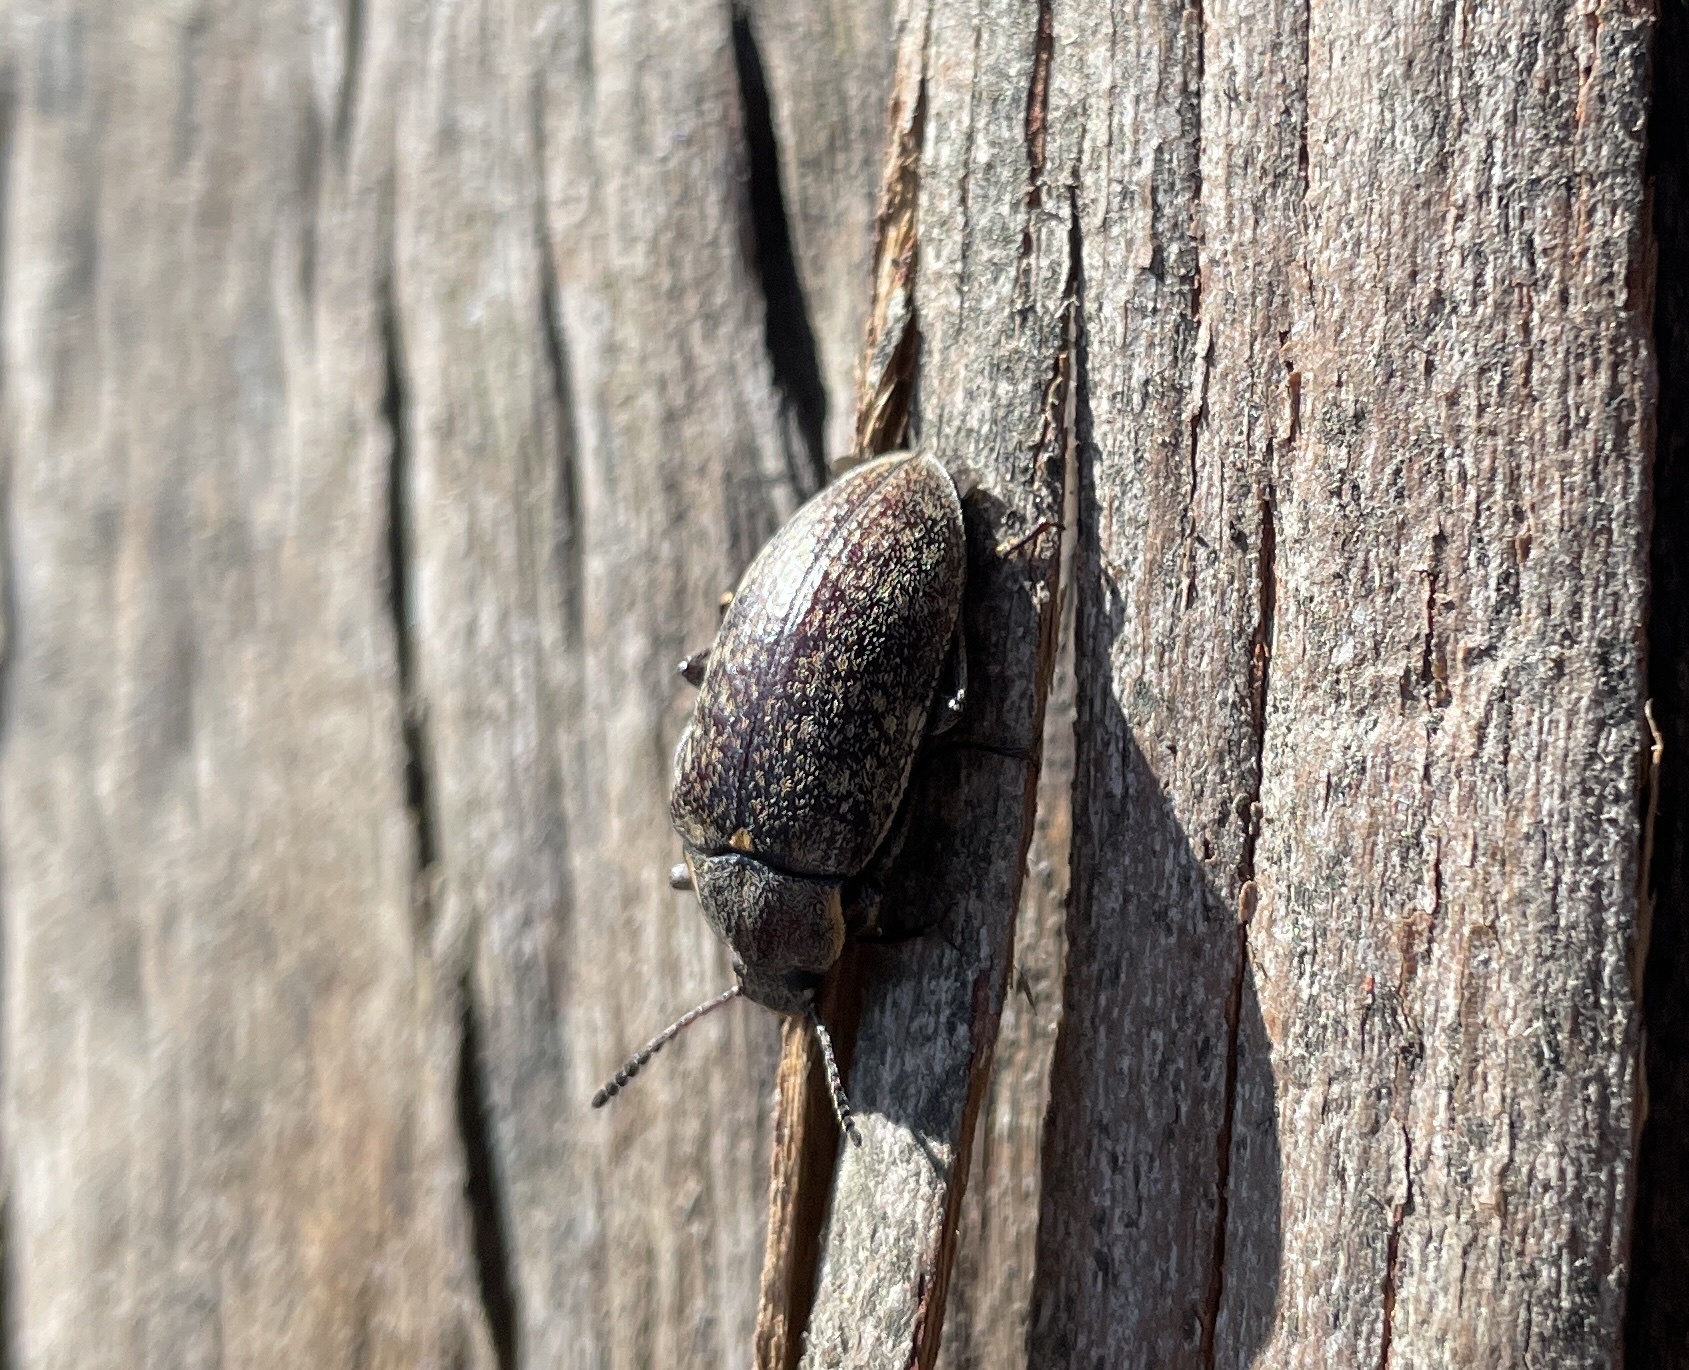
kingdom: Animalia
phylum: Arthropoda
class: Insecta
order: Coleoptera
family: Tenebrionidae
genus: Pachycoelia
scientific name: Pachycoelia
